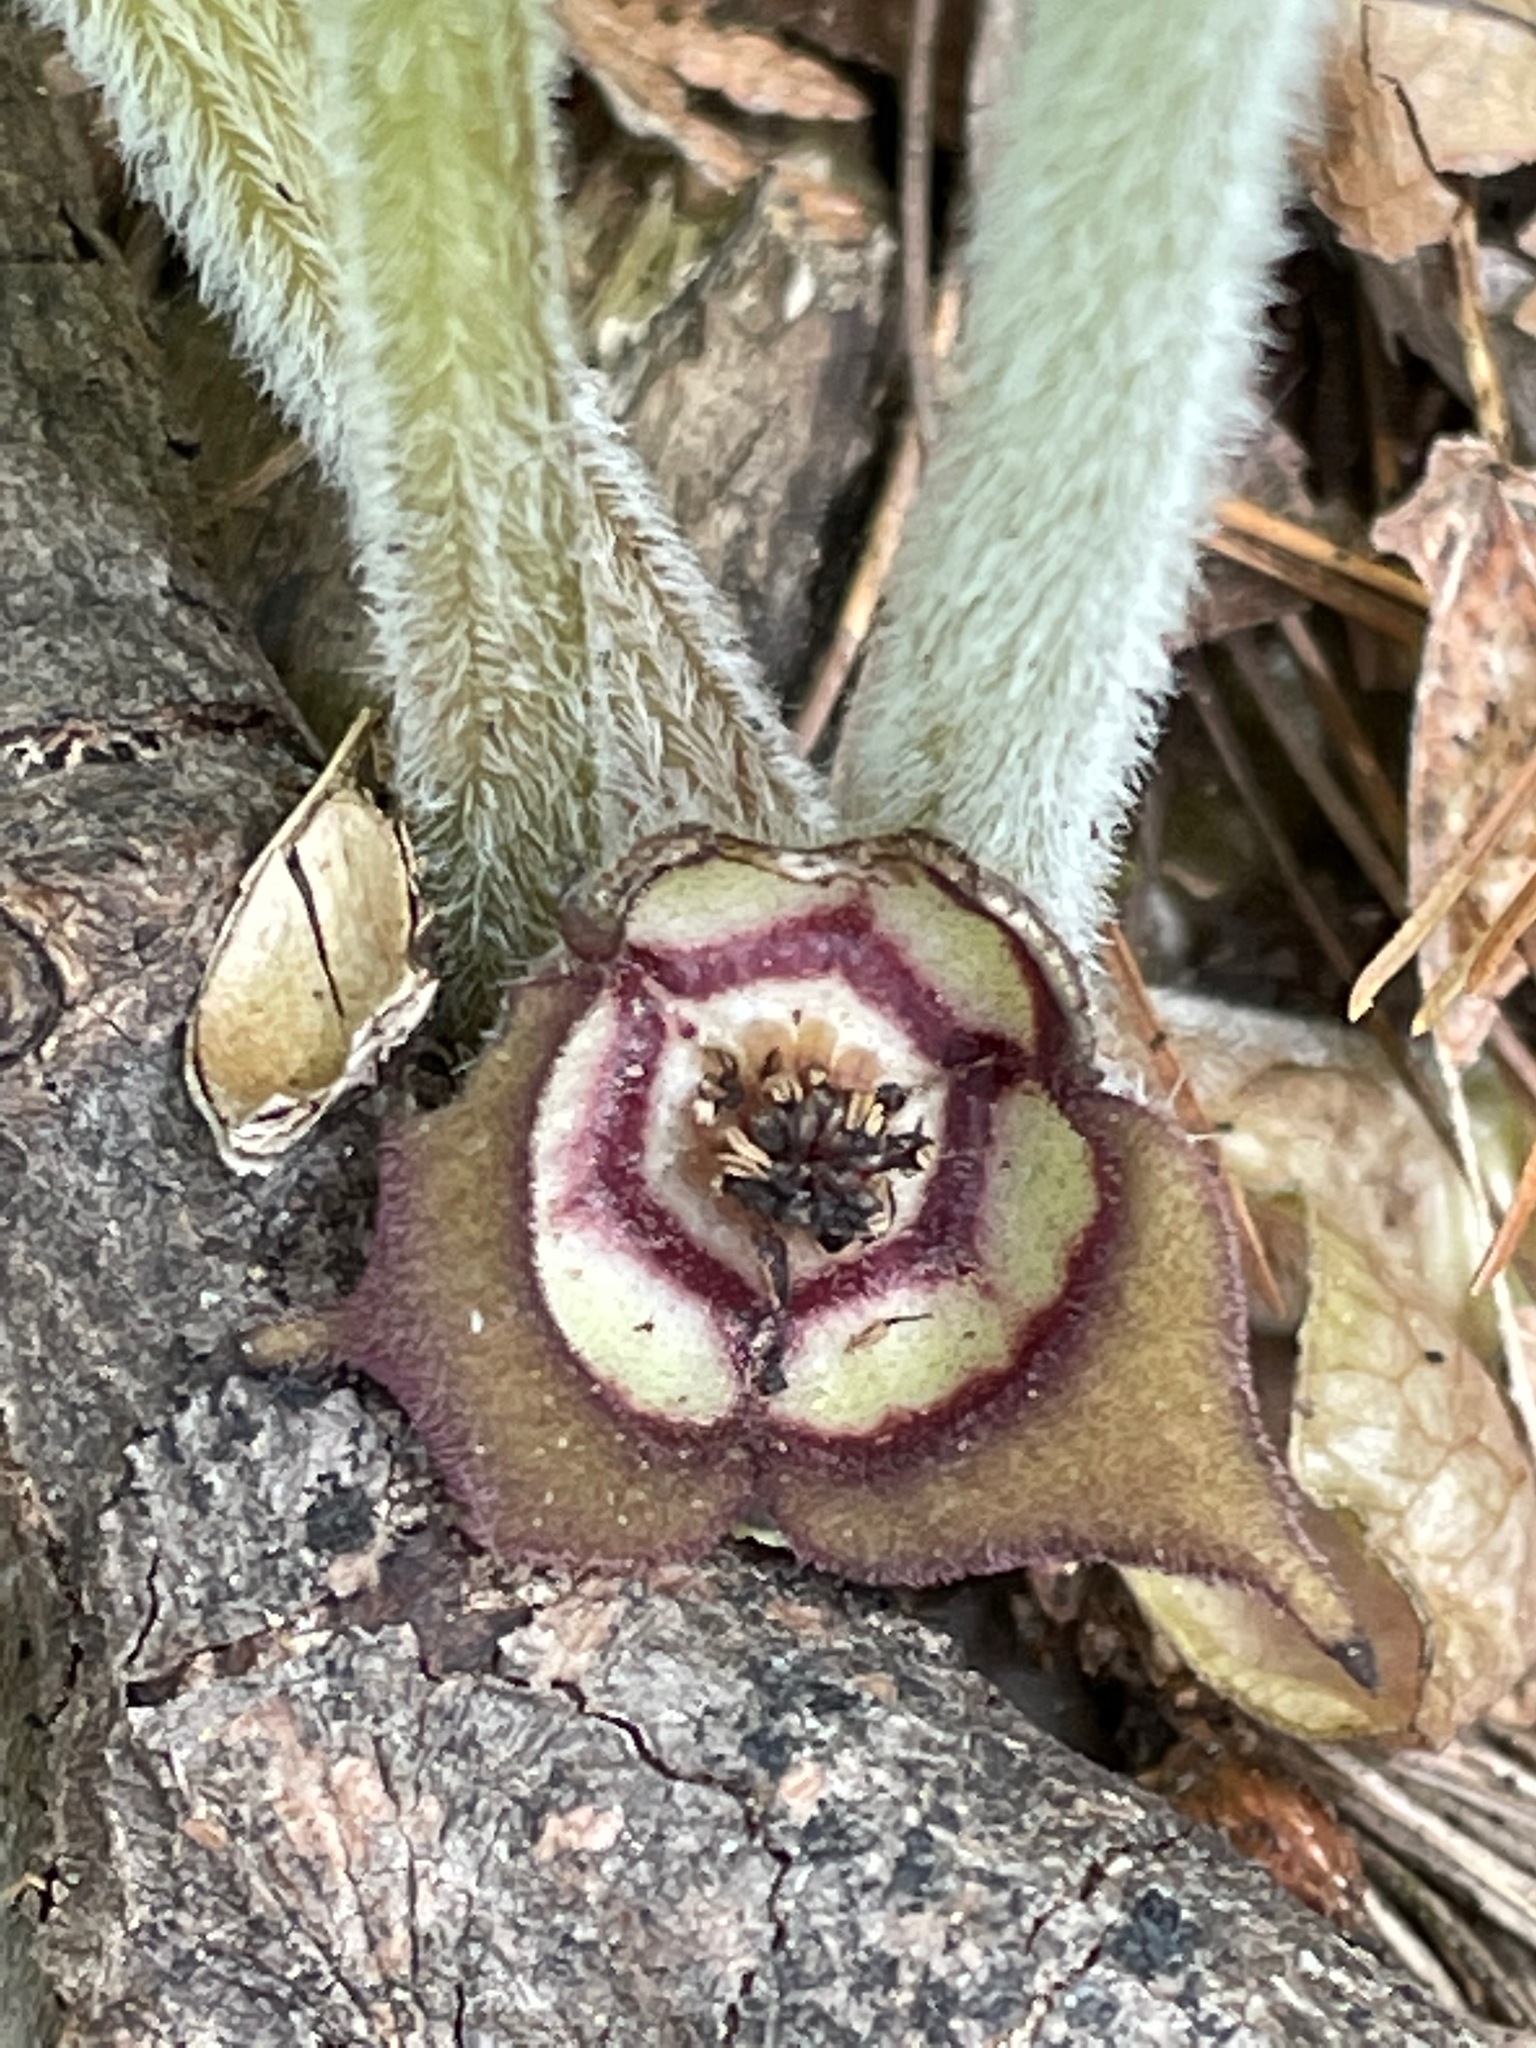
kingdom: Plantae
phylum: Tracheophyta
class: Magnoliopsida
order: Piperales
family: Aristolochiaceae
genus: Asarum
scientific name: Asarum canadense
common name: Wild ginger
